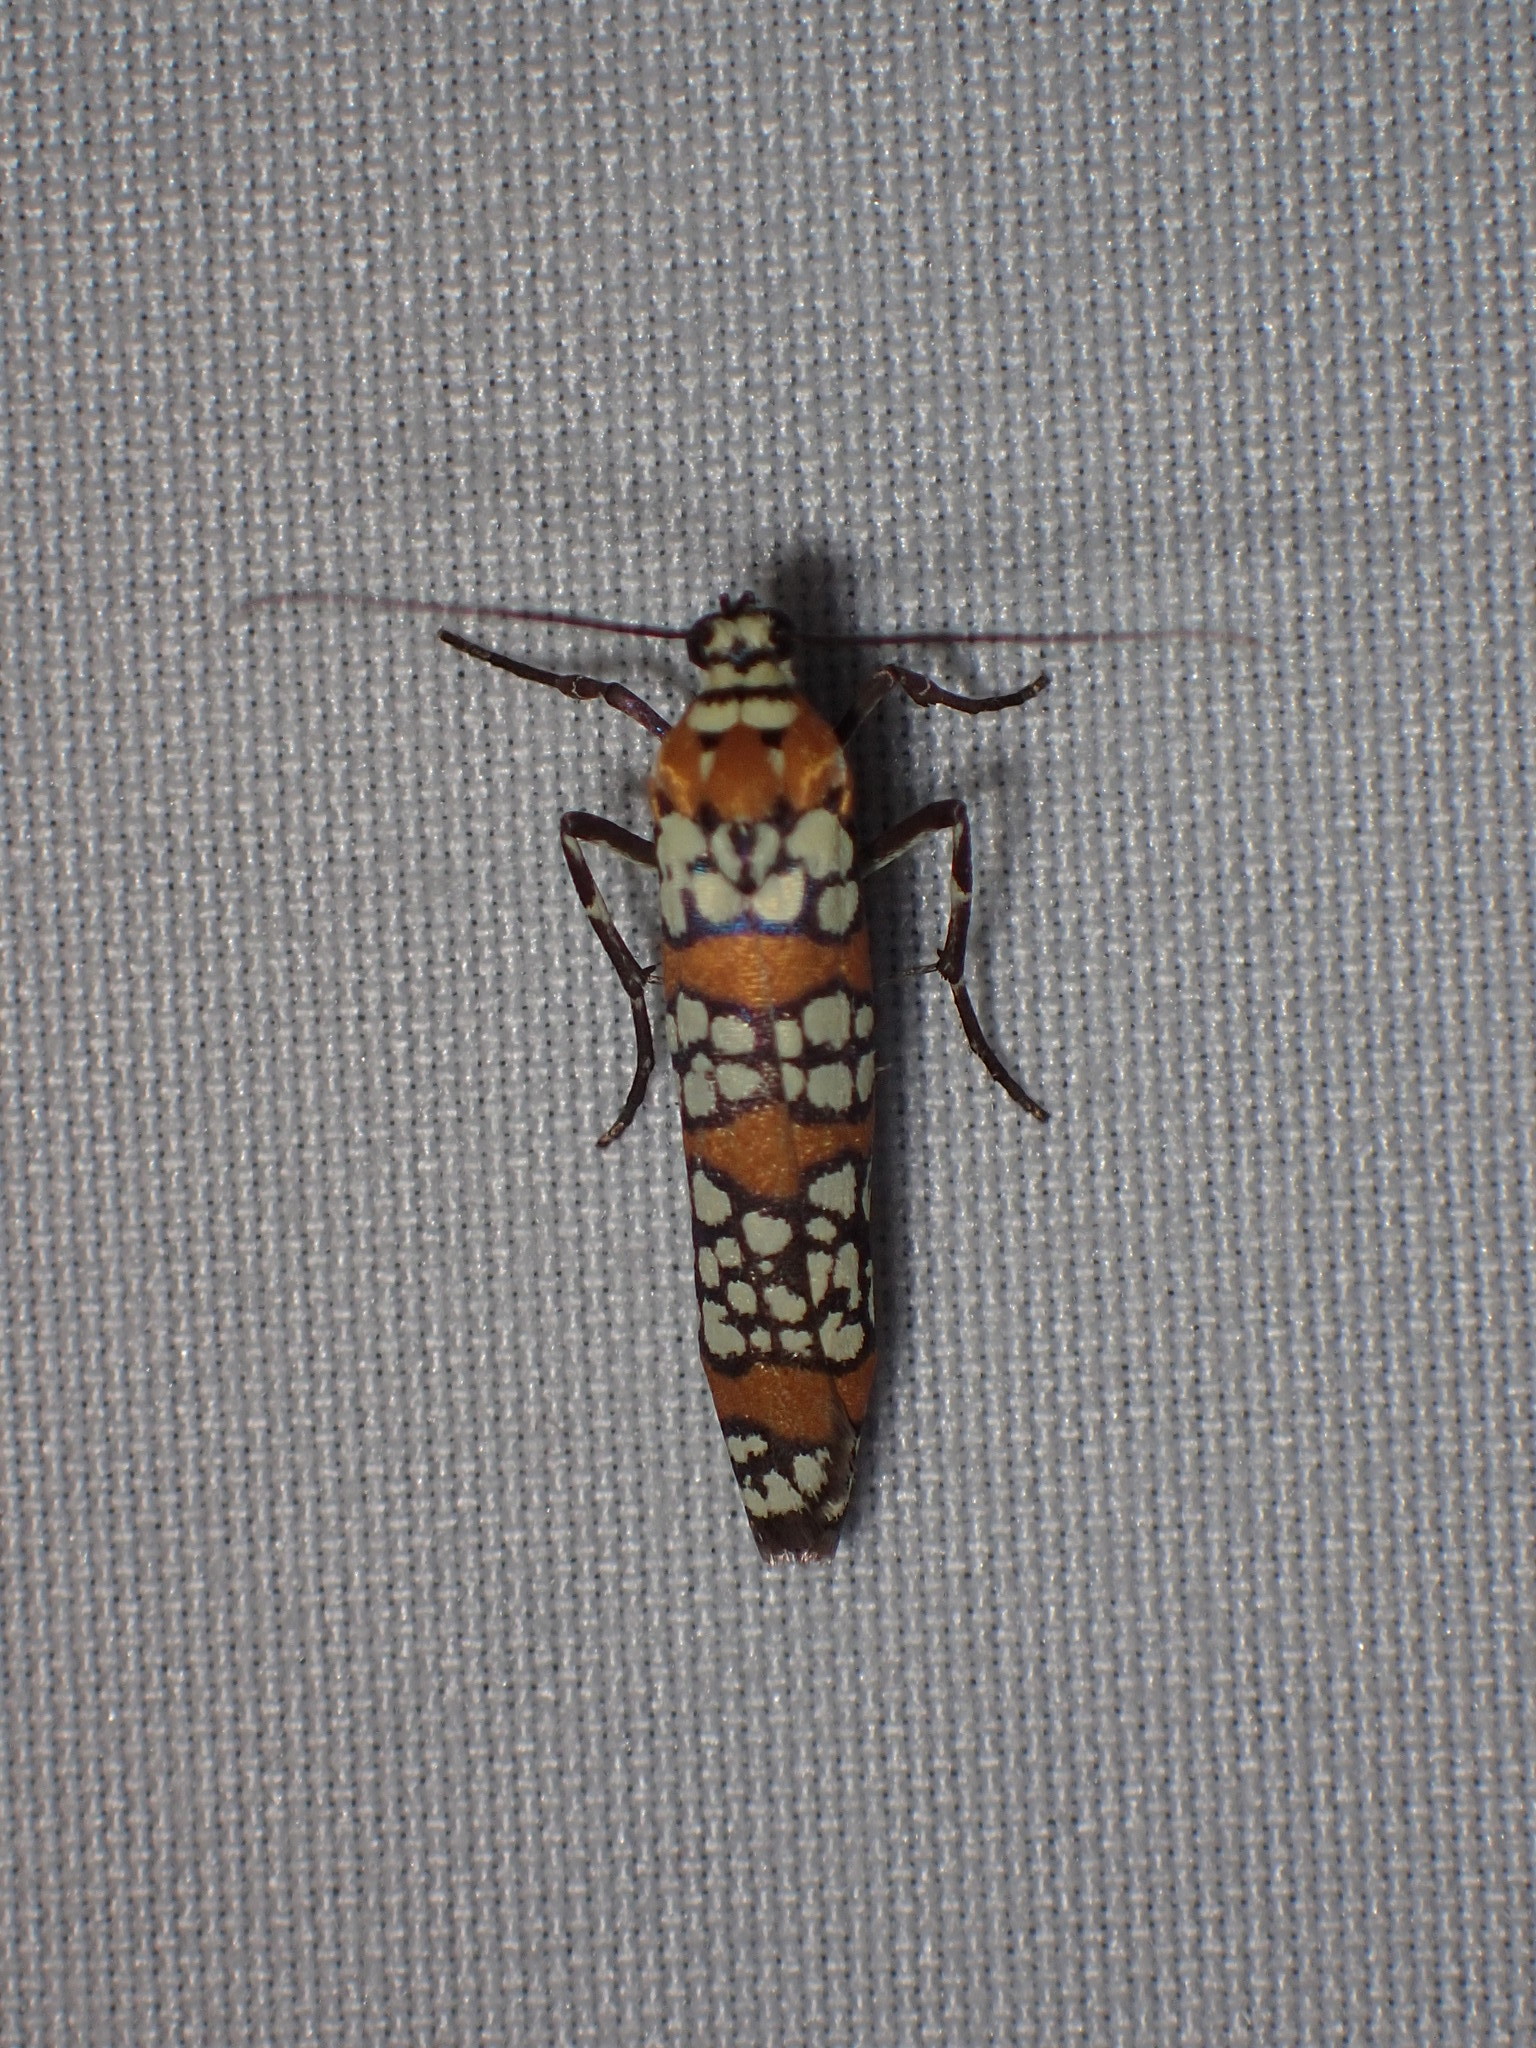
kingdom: Animalia
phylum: Arthropoda
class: Insecta
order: Lepidoptera
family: Attevidae
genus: Atteva
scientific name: Atteva punctella
